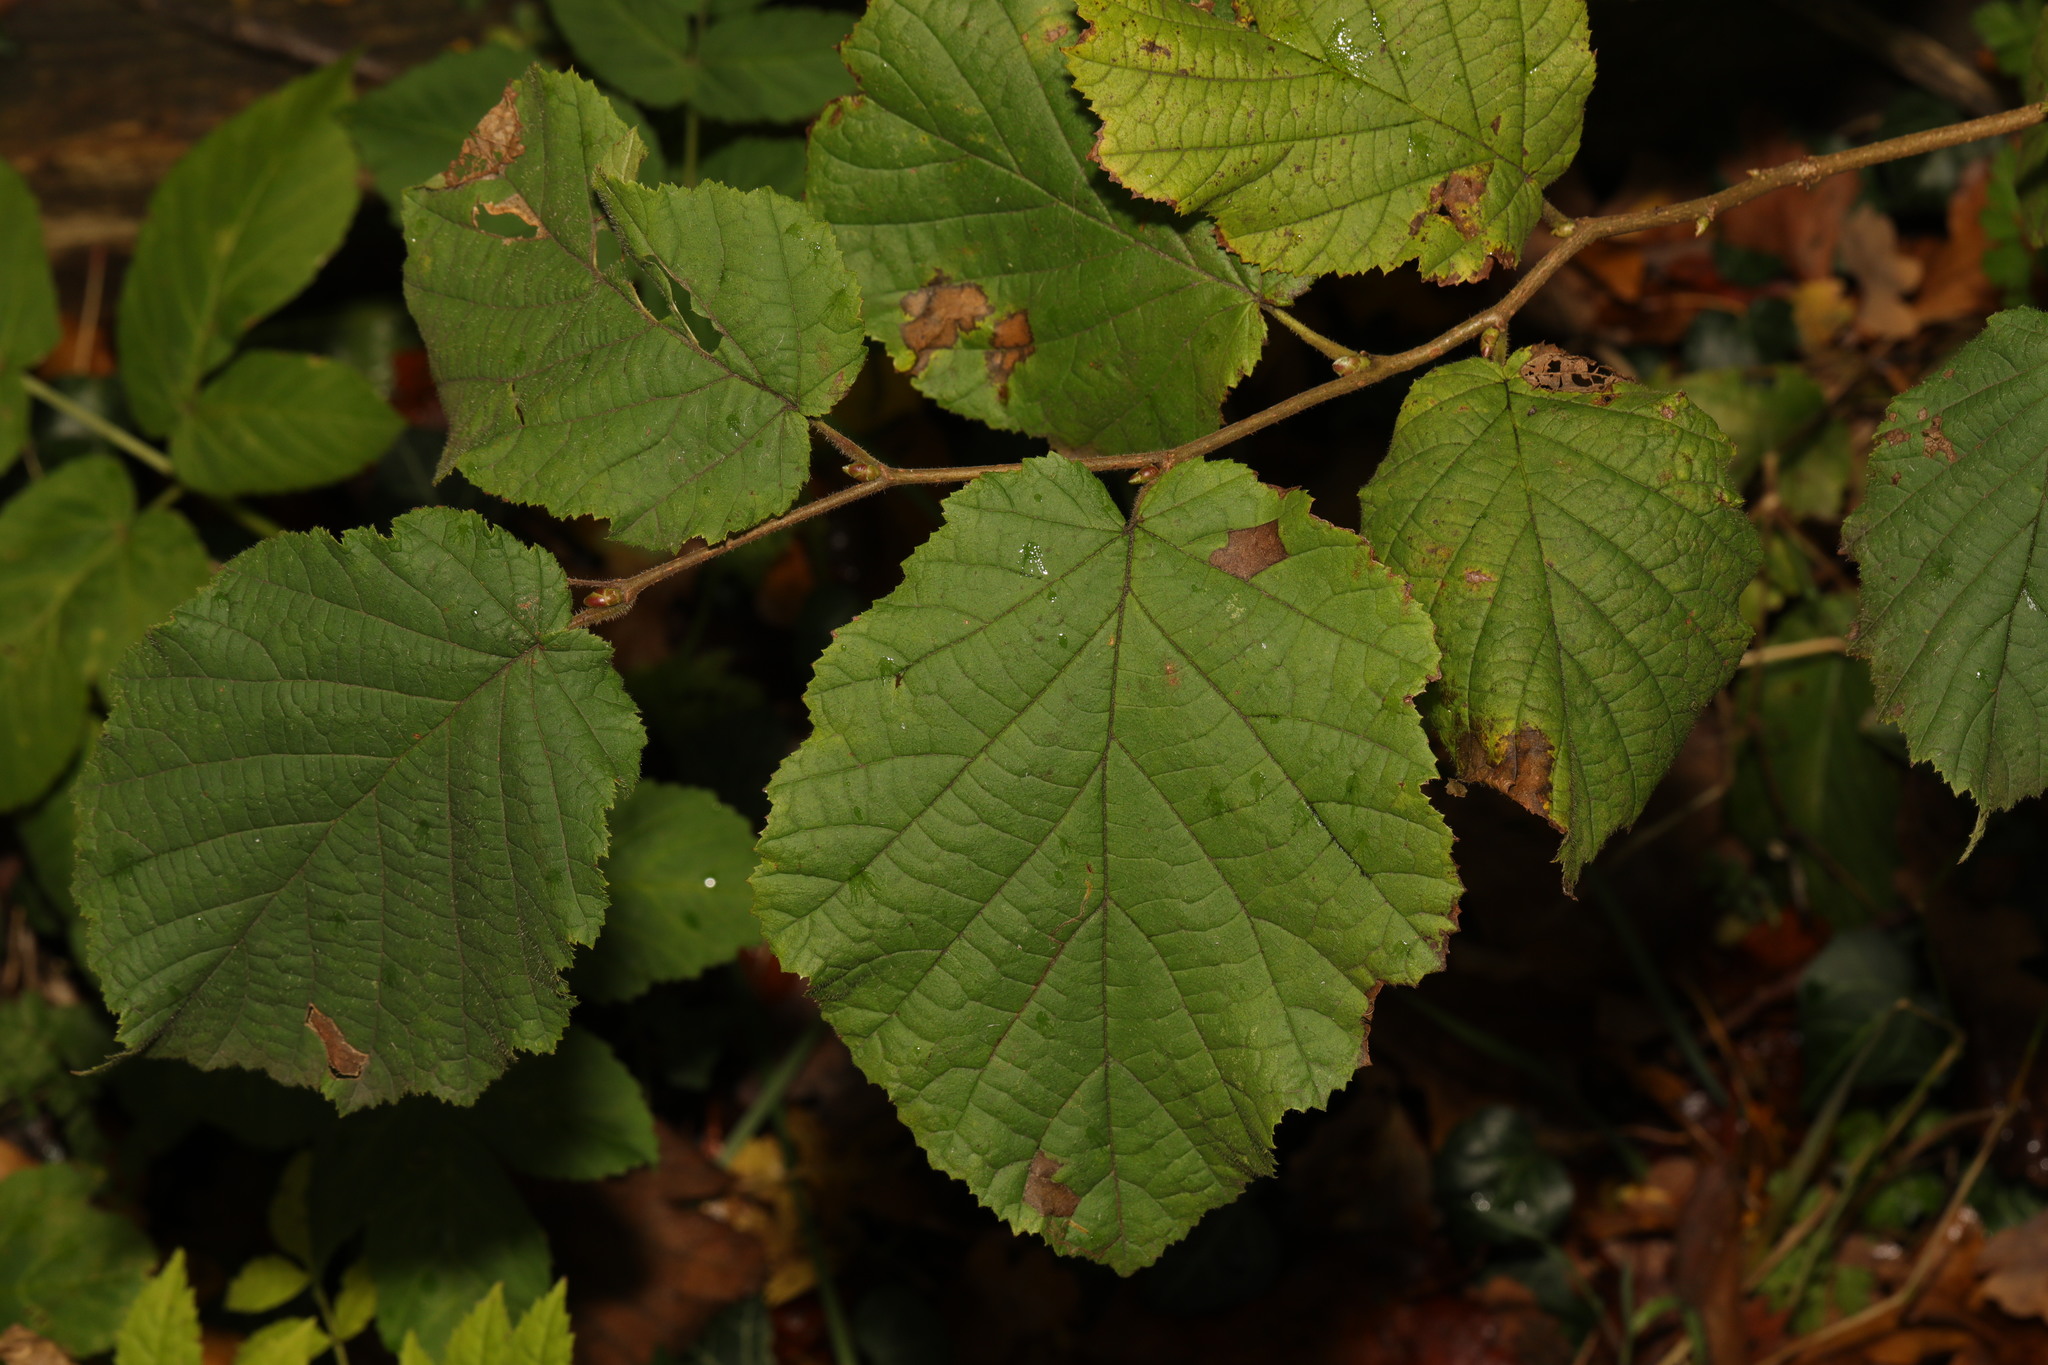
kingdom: Plantae
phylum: Tracheophyta
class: Magnoliopsida
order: Fagales
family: Betulaceae
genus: Corylus
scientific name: Corylus avellana
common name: European hazel
